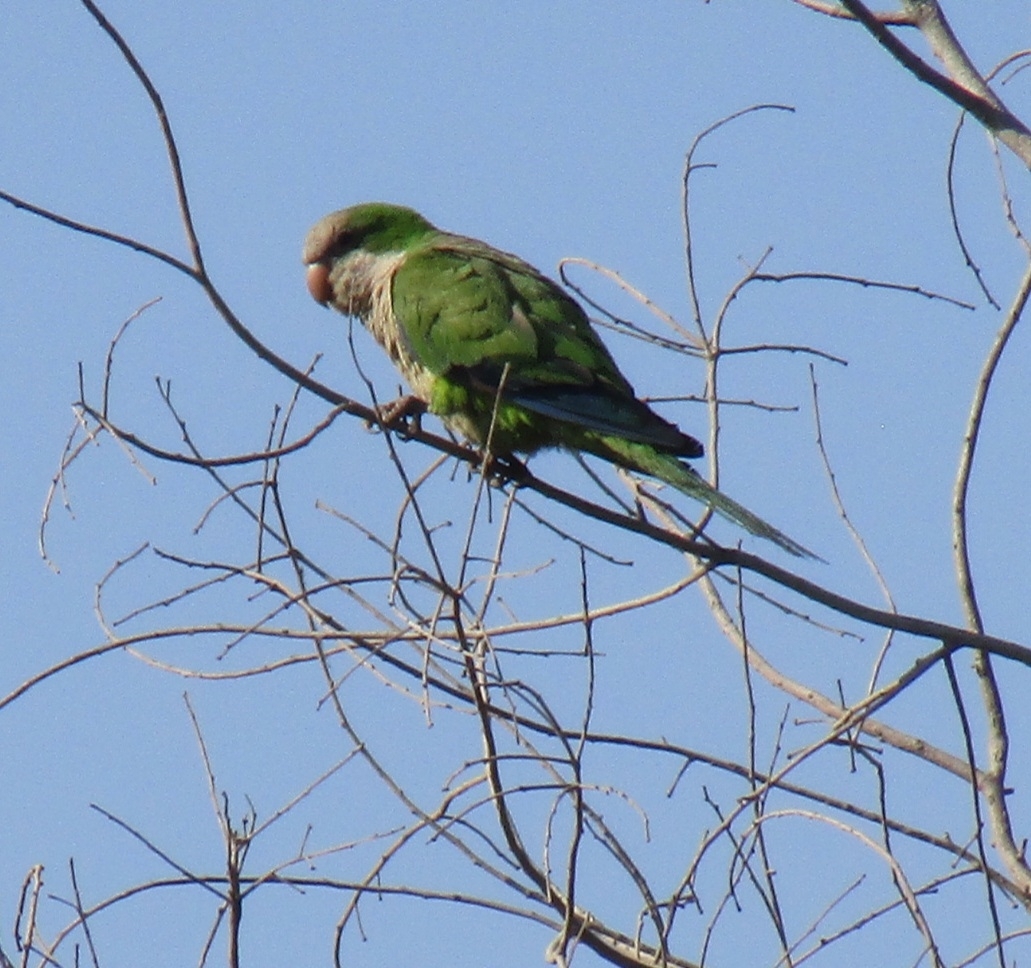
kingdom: Animalia
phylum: Chordata
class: Aves
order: Psittaciformes
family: Psittacidae
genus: Myiopsitta
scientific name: Myiopsitta monachus
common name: Monk parakeet
